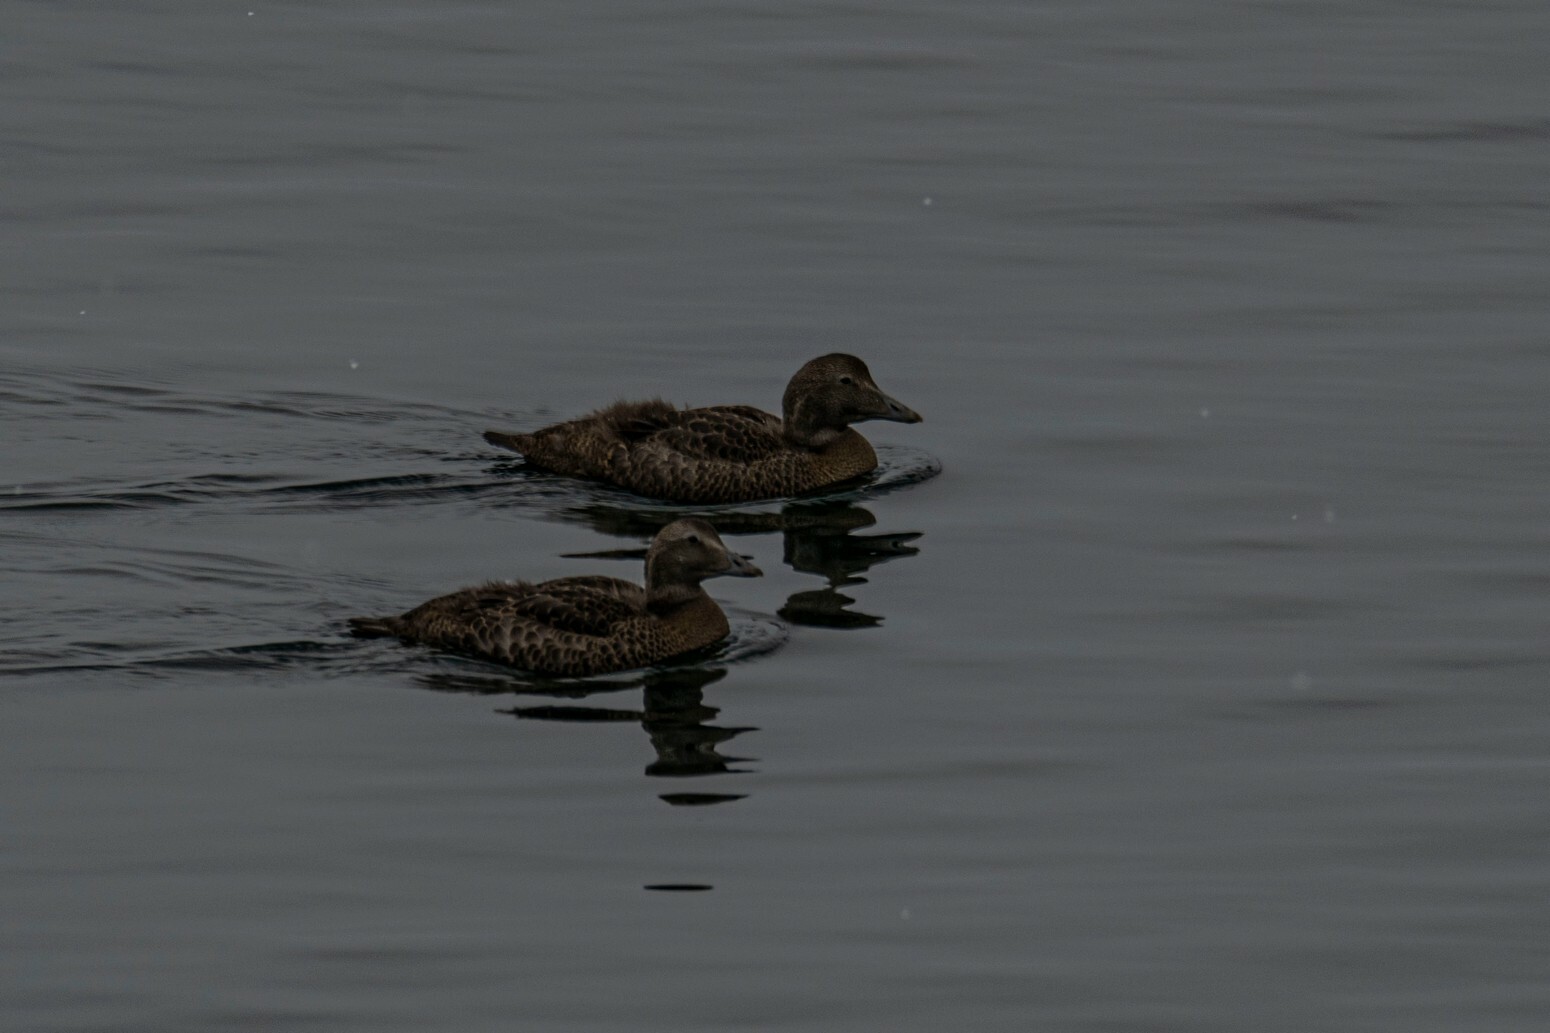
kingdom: Animalia
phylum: Chordata
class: Aves
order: Anseriformes
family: Anatidae
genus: Somateria
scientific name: Somateria mollissima
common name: Common eider
